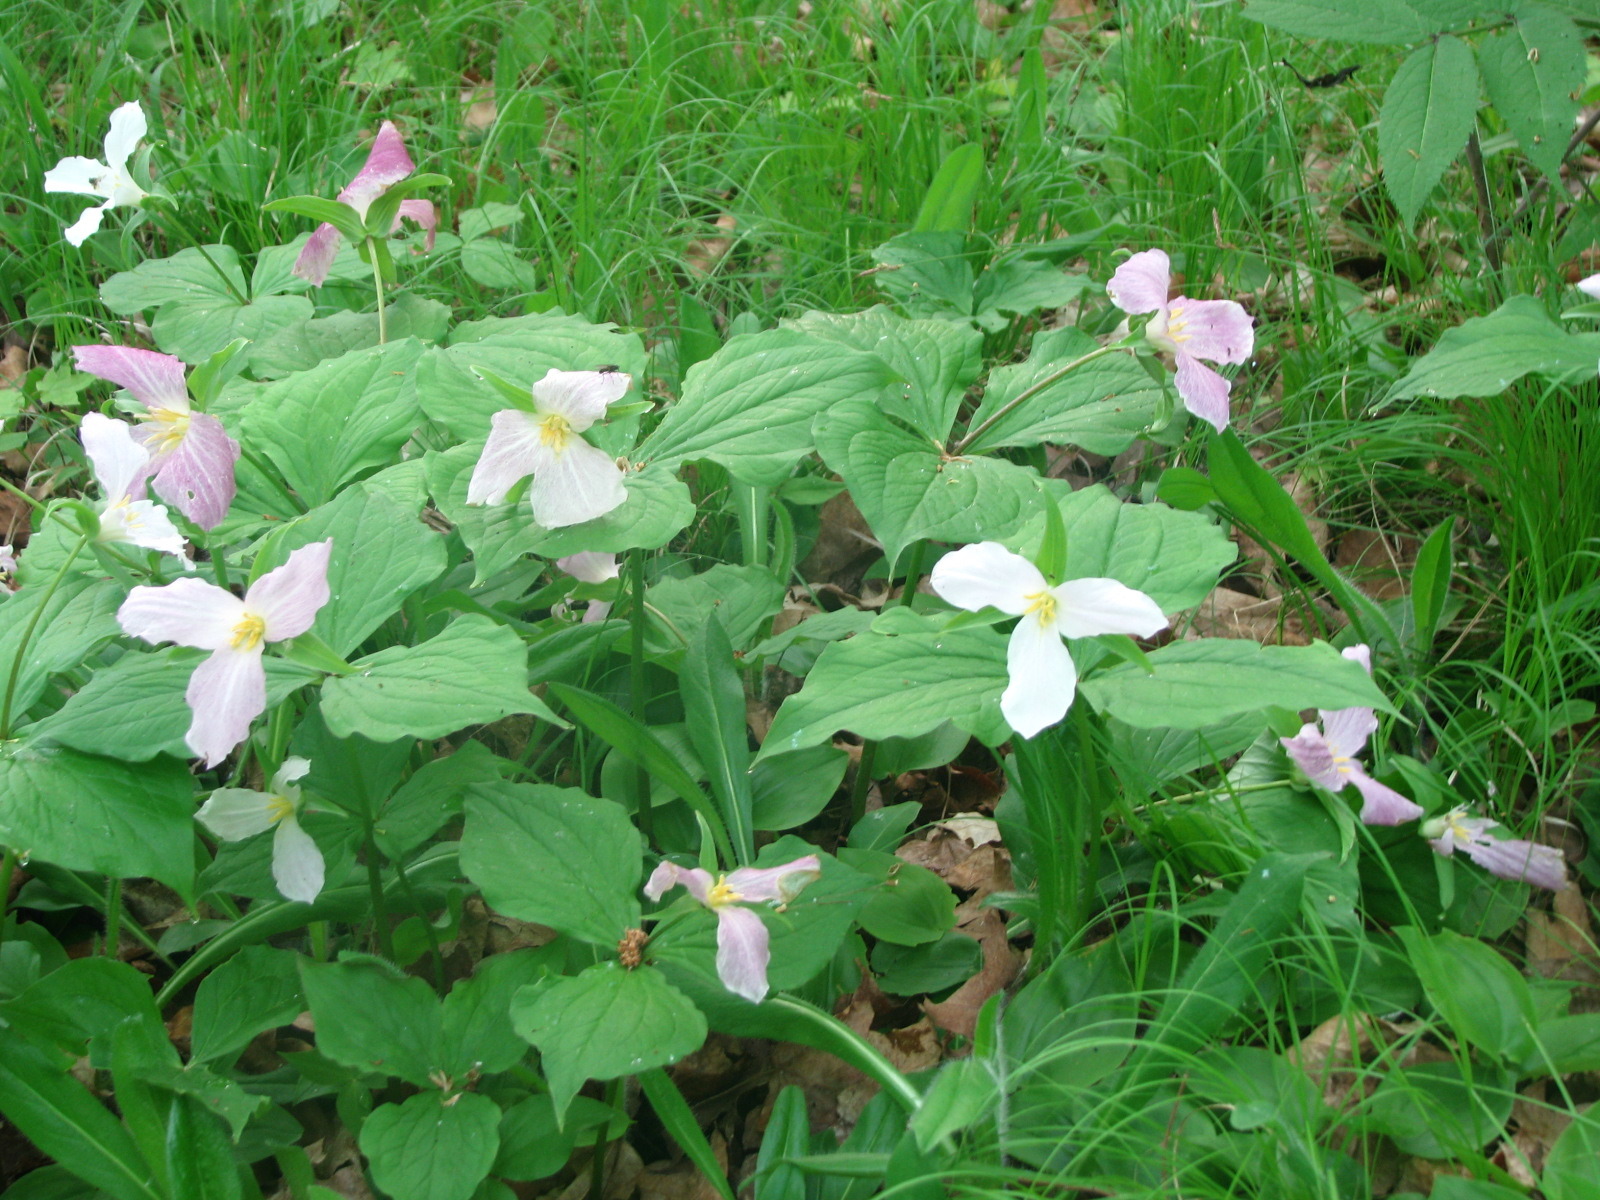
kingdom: Plantae
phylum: Tracheophyta
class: Liliopsida
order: Liliales
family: Melanthiaceae
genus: Trillium
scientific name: Trillium grandiflorum
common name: Great white trillium
